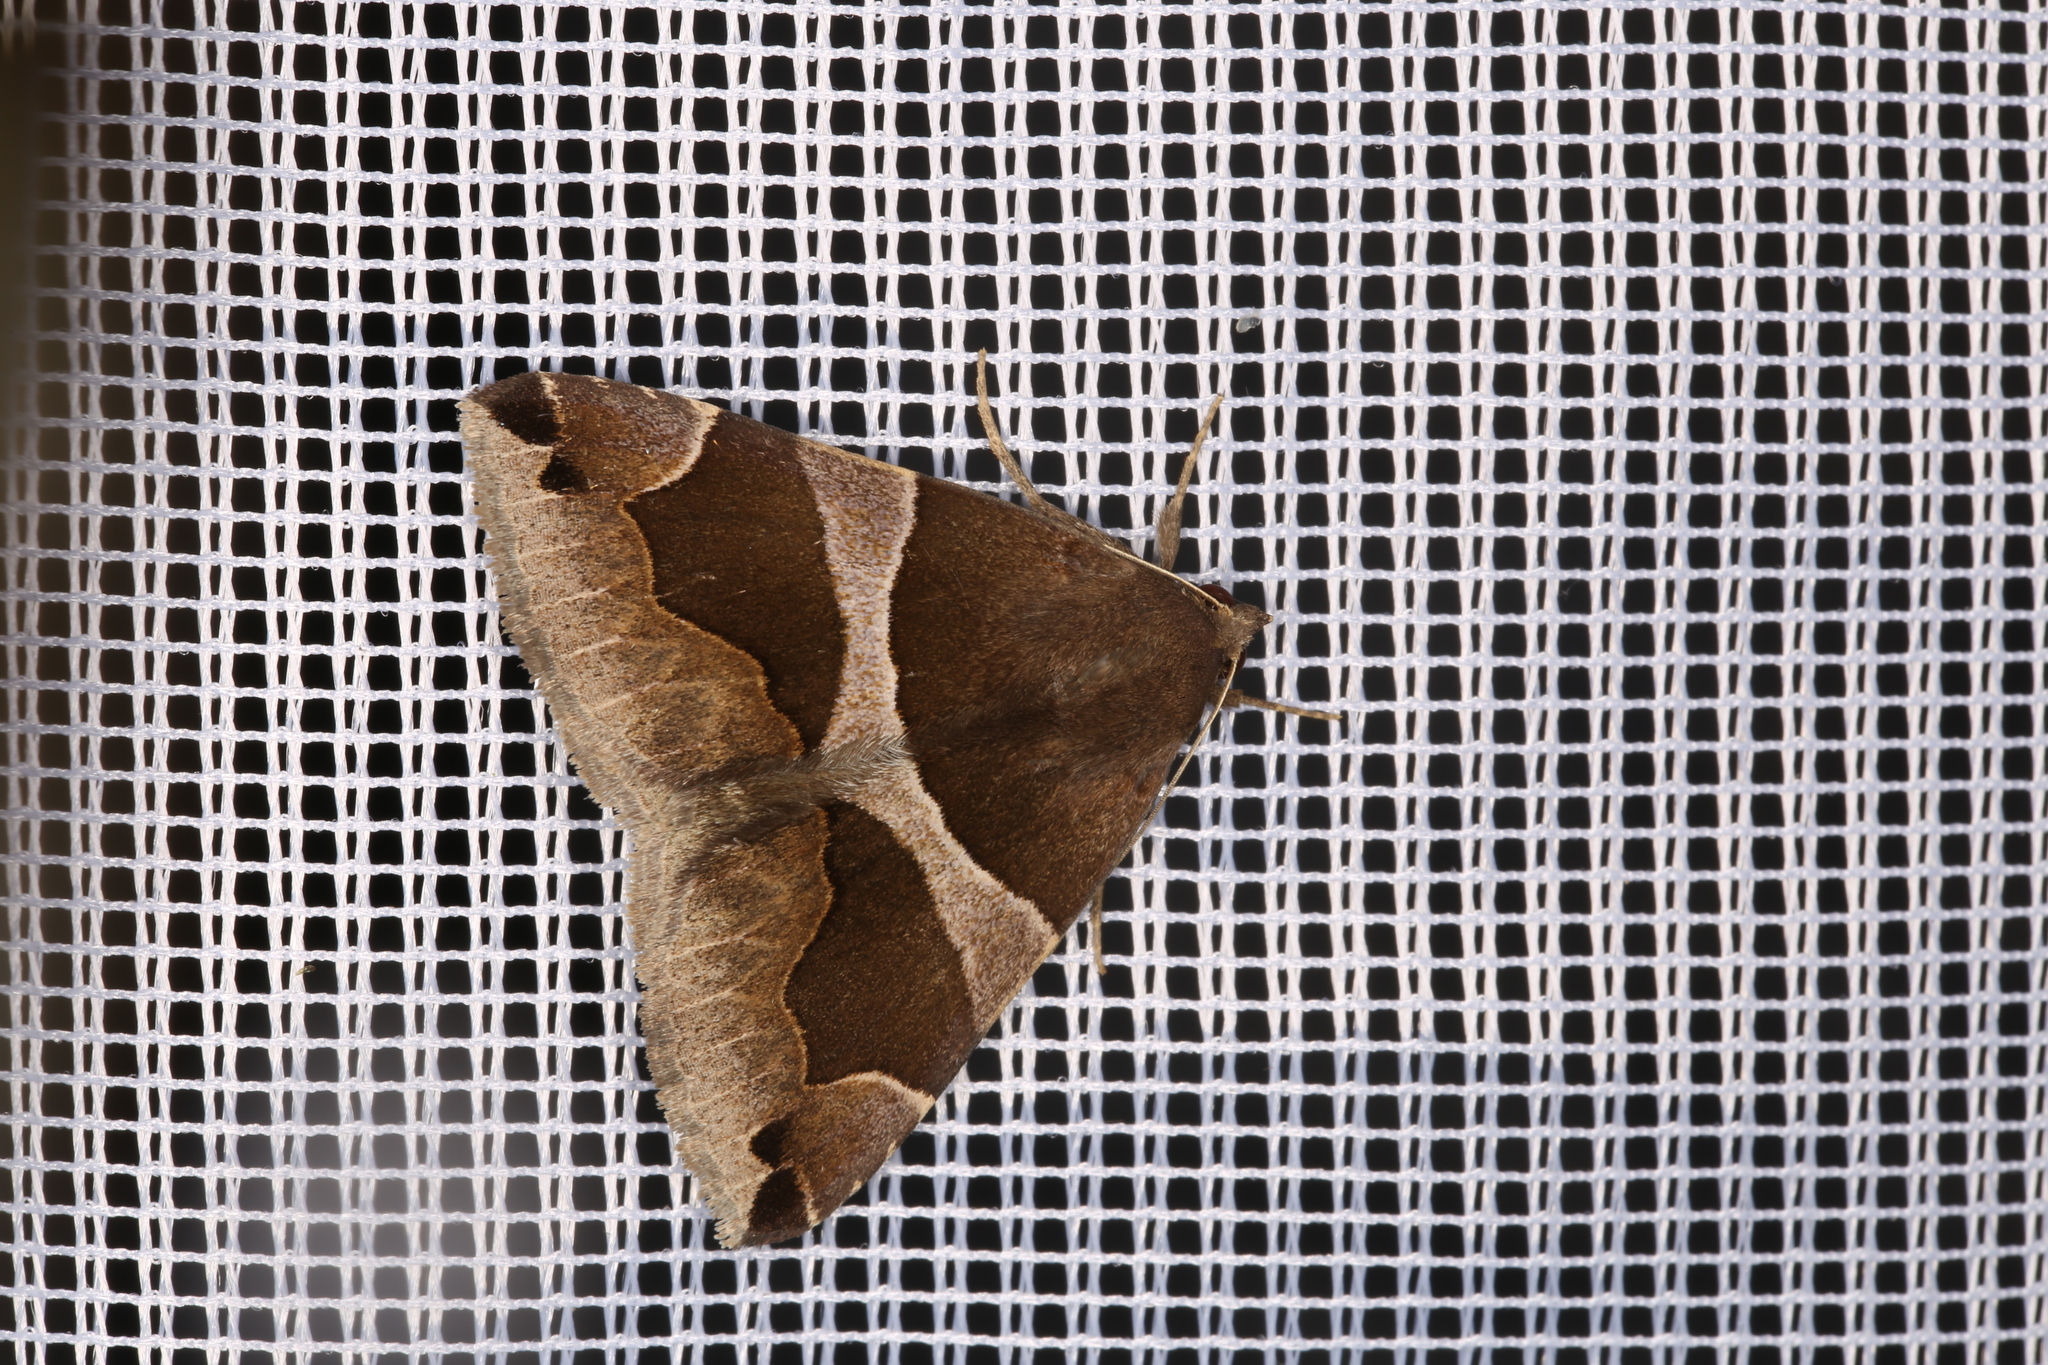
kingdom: Animalia
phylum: Arthropoda
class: Insecta
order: Lepidoptera
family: Erebidae
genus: Dysgonia
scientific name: Dysgonia algira
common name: Passenger
